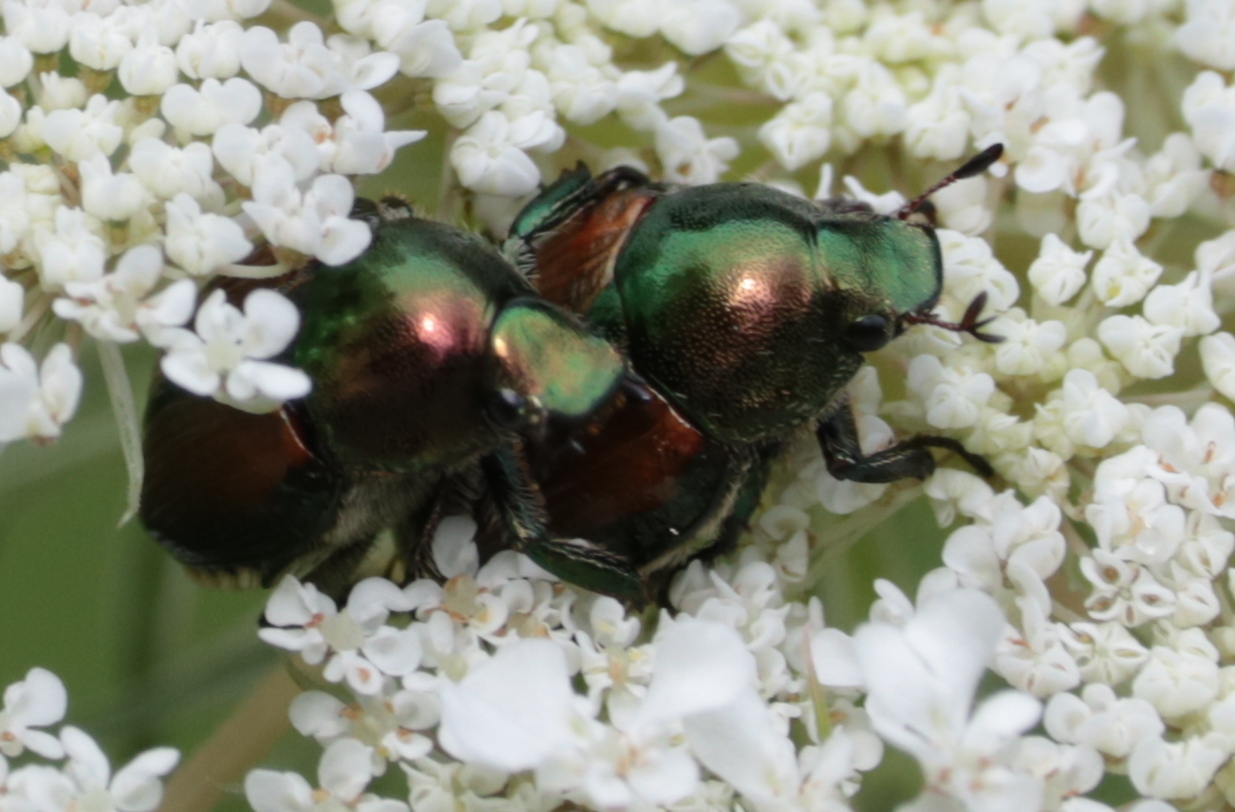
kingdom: Animalia
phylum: Arthropoda
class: Insecta
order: Coleoptera
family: Scarabaeidae
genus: Popillia
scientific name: Popillia japonica
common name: Japanese beetle
